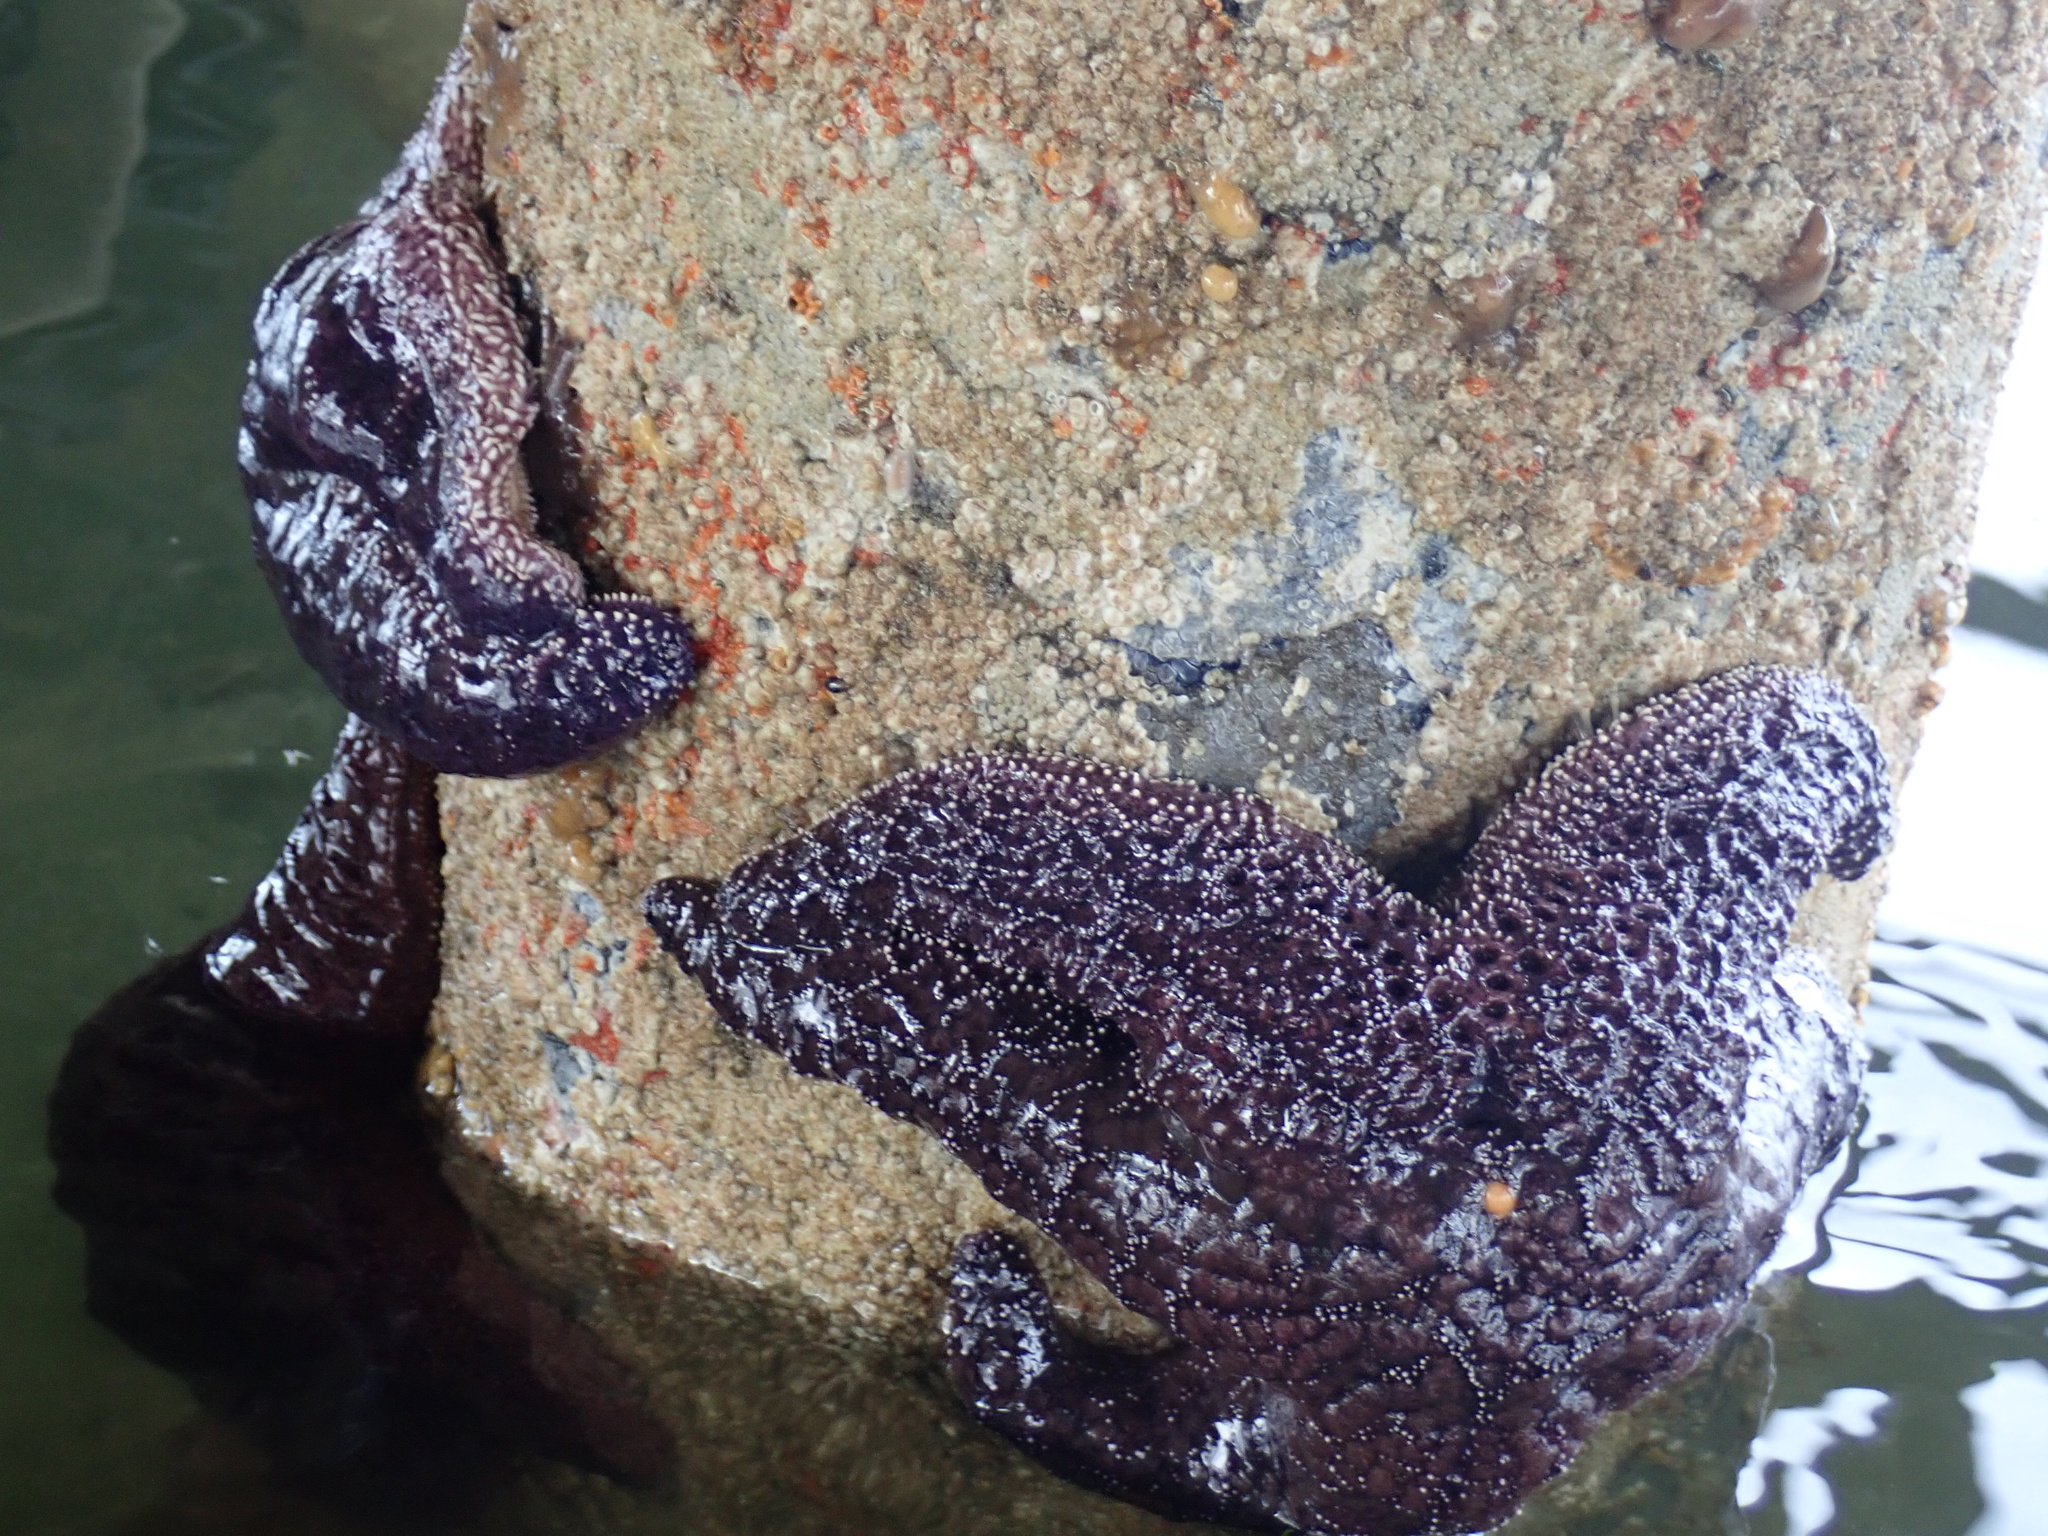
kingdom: Animalia
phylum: Echinodermata
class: Asteroidea
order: Forcipulatida
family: Asteriidae
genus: Pisaster
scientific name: Pisaster ochraceus
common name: Ochre stars
